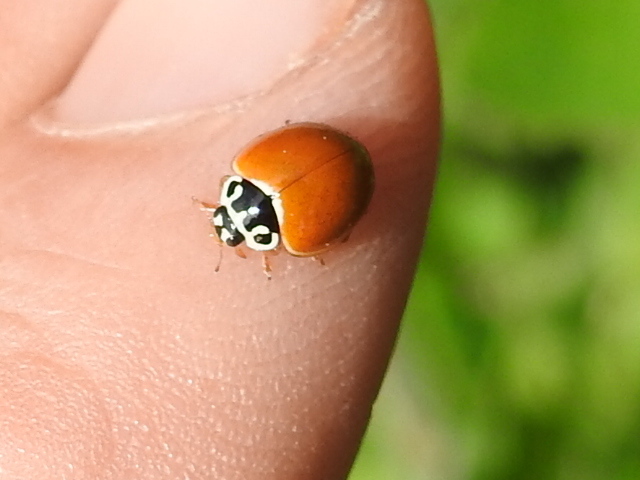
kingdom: Animalia
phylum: Arthropoda
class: Insecta
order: Coleoptera
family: Coccinellidae
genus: Cycloneda
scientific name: Cycloneda munda
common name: Polished lady beetle
